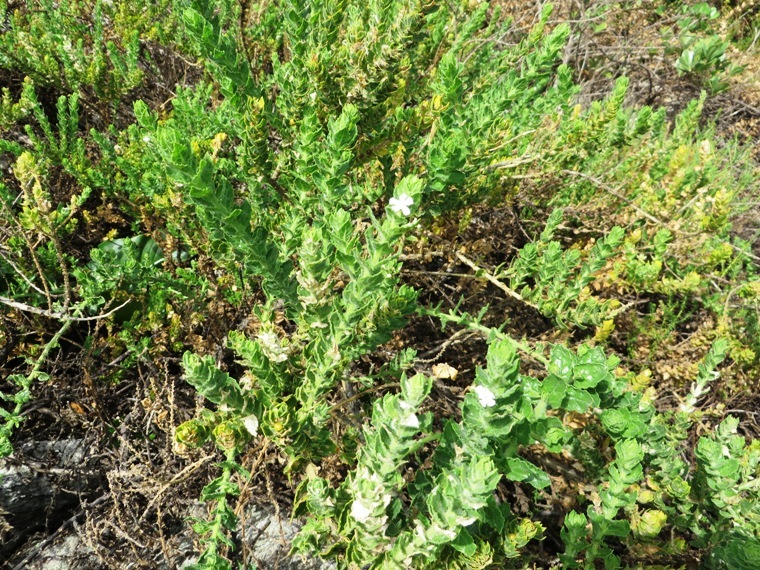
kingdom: Plantae
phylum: Tracheophyta
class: Magnoliopsida
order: Lamiales
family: Scrophulariaceae
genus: Oftia
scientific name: Oftia africana
